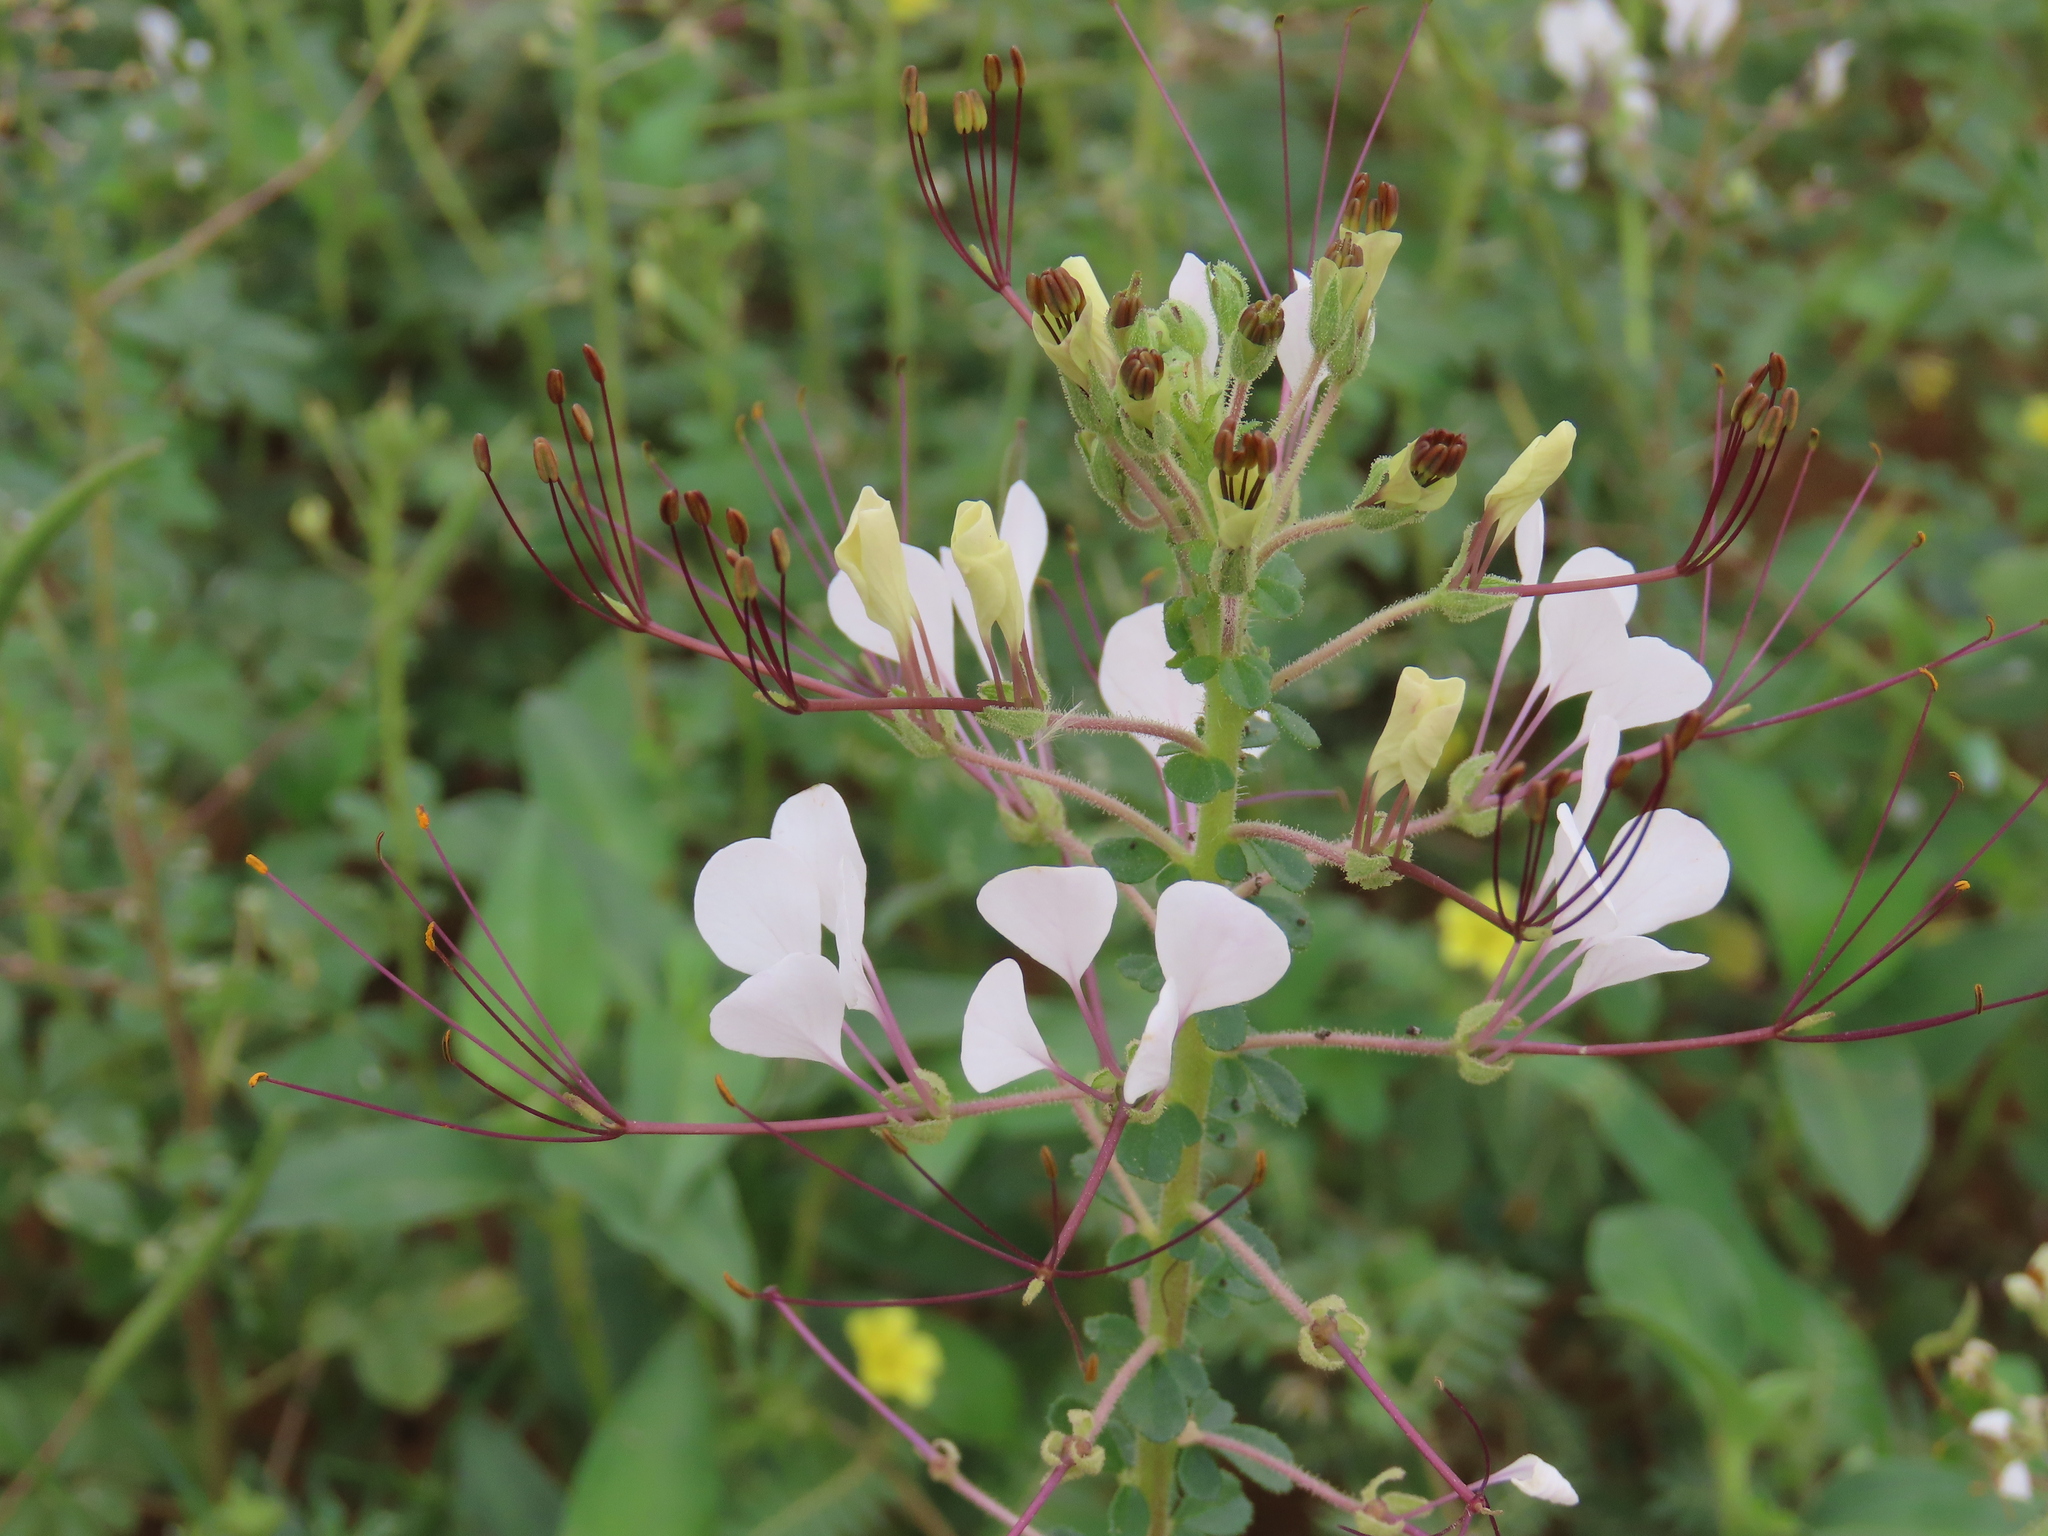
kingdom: Plantae
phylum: Tracheophyta
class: Magnoliopsida
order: Brassicales
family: Cleomaceae
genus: Gynandropsis
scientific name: Gynandropsis gynandra
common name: Spiderwisp
